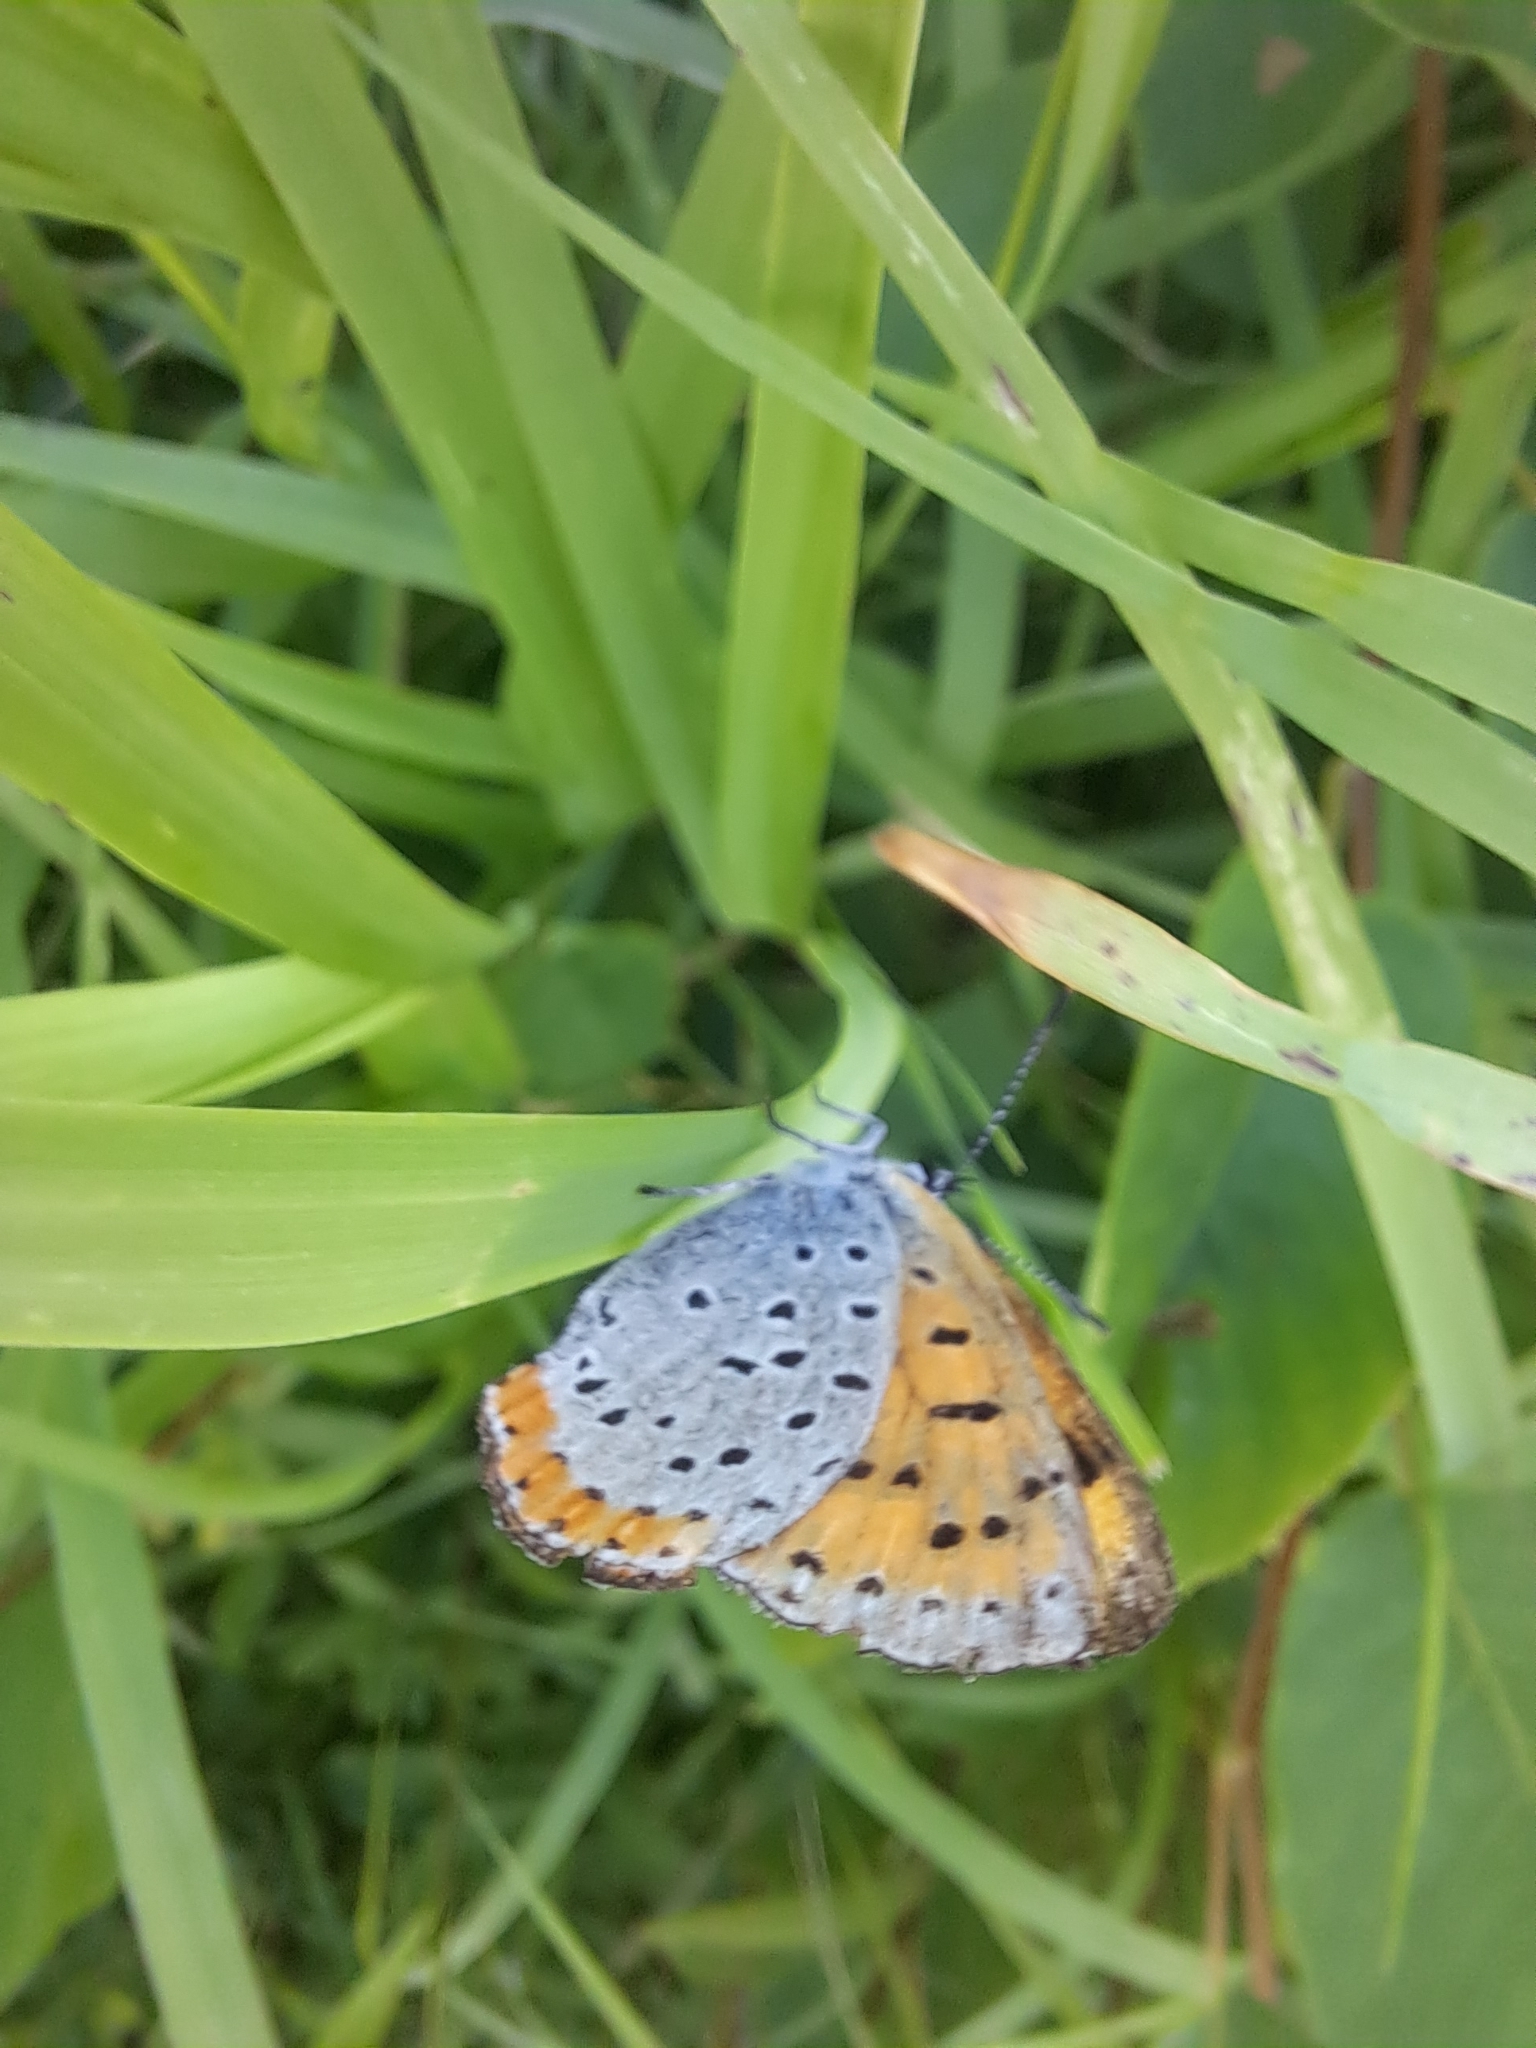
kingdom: Animalia
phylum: Arthropoda
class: Insecta
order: Lepidoptera
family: Lycaenidae
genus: Tharsalea
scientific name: Tharsalea hyllus
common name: Bronze copper
